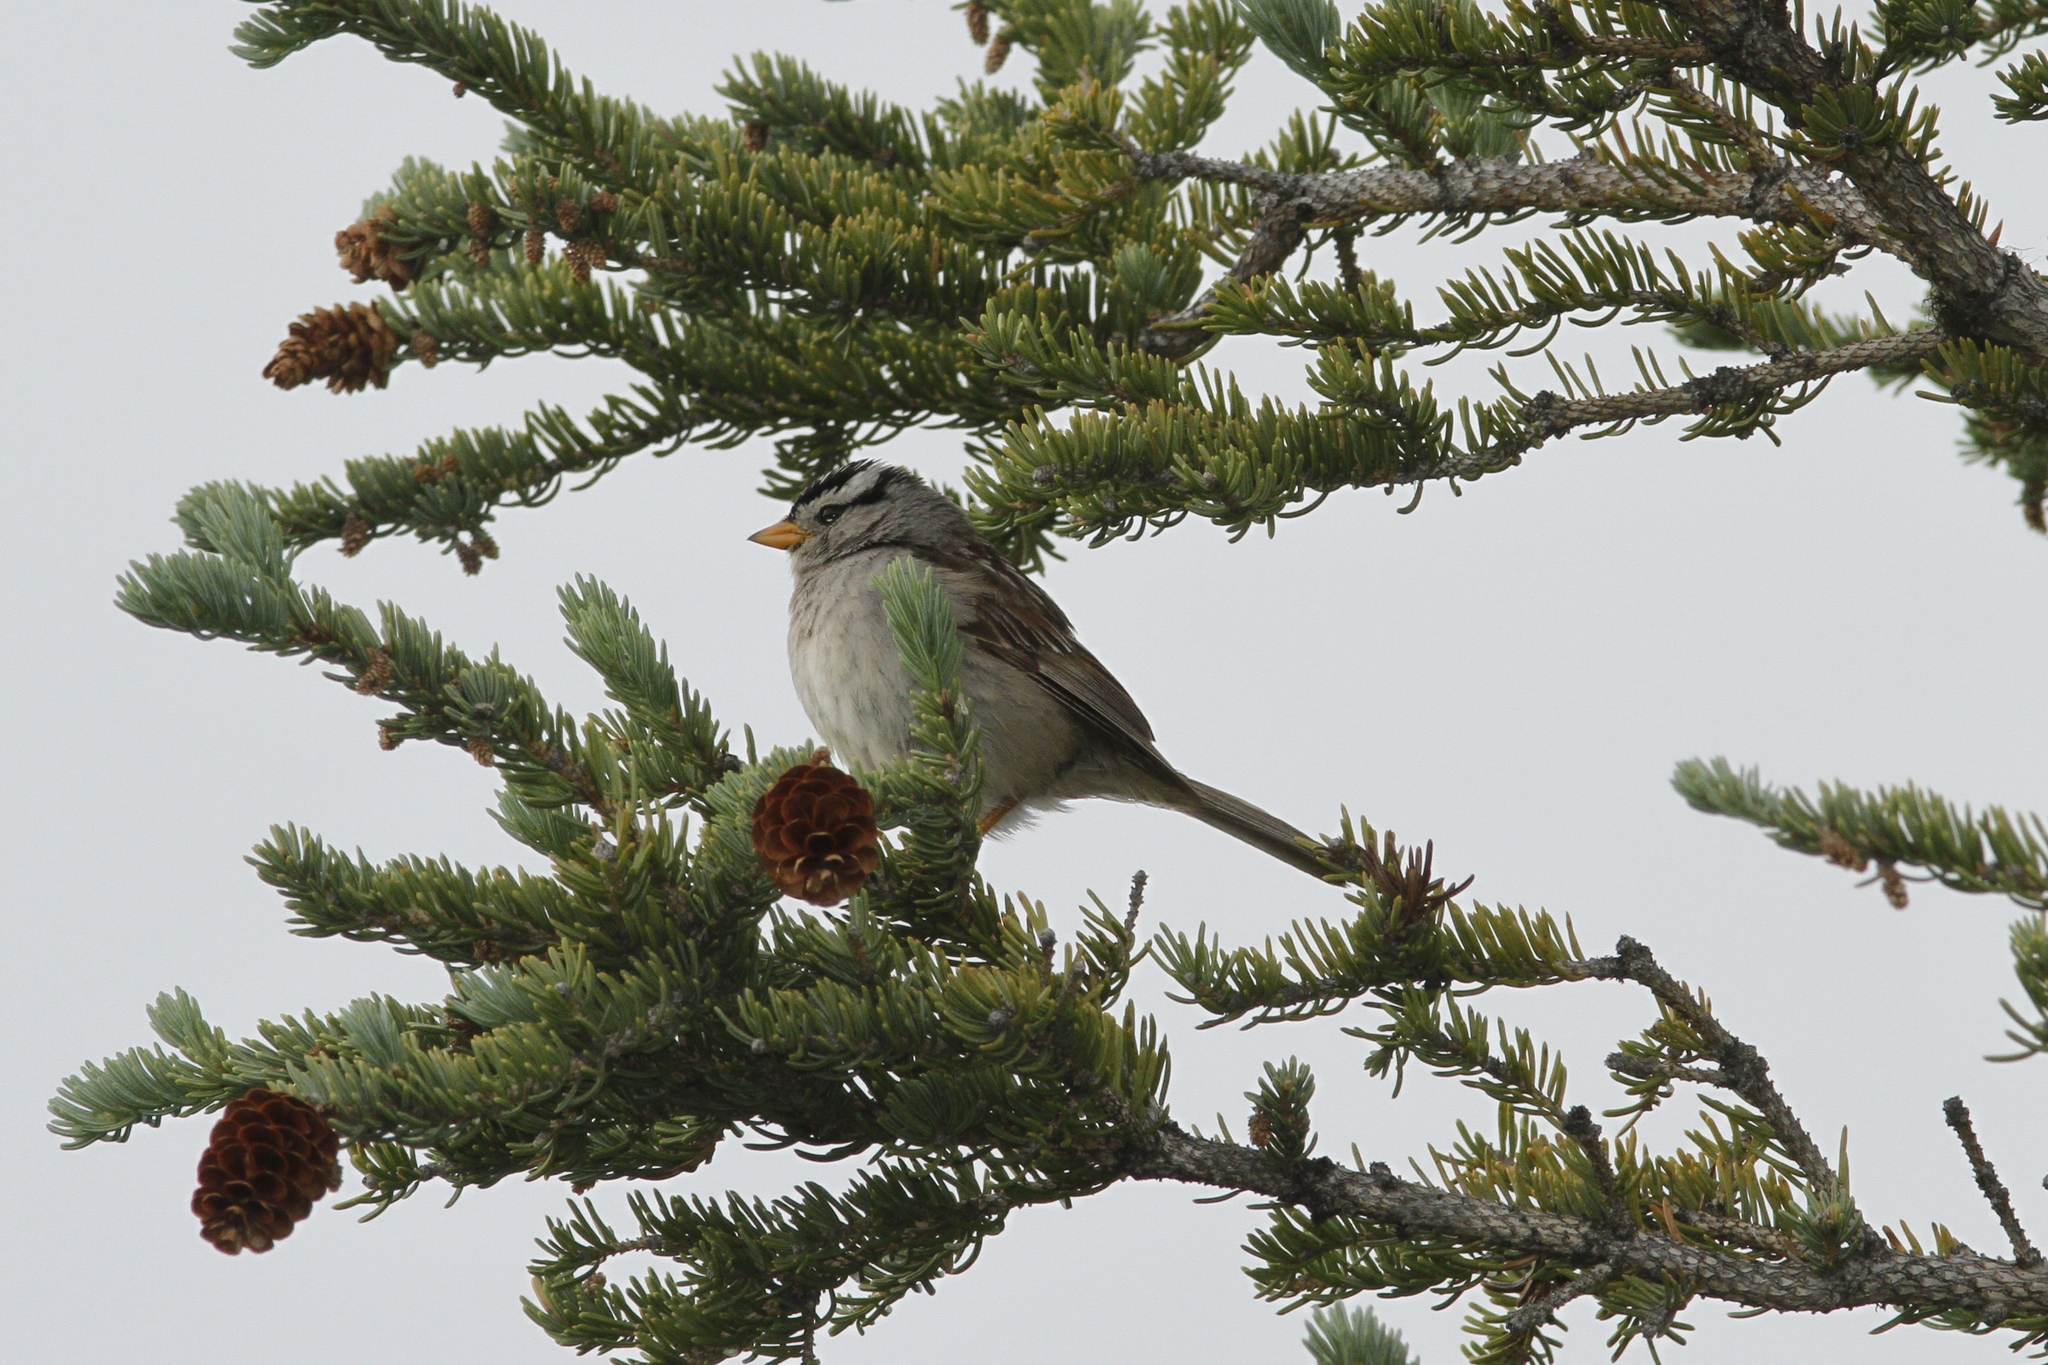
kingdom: Animalia
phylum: Chordata
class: Aves
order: Passeriformes
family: Passerellidae
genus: Zonotrichia
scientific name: Zonotrichia leucophrys
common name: White-crowned sparrow
